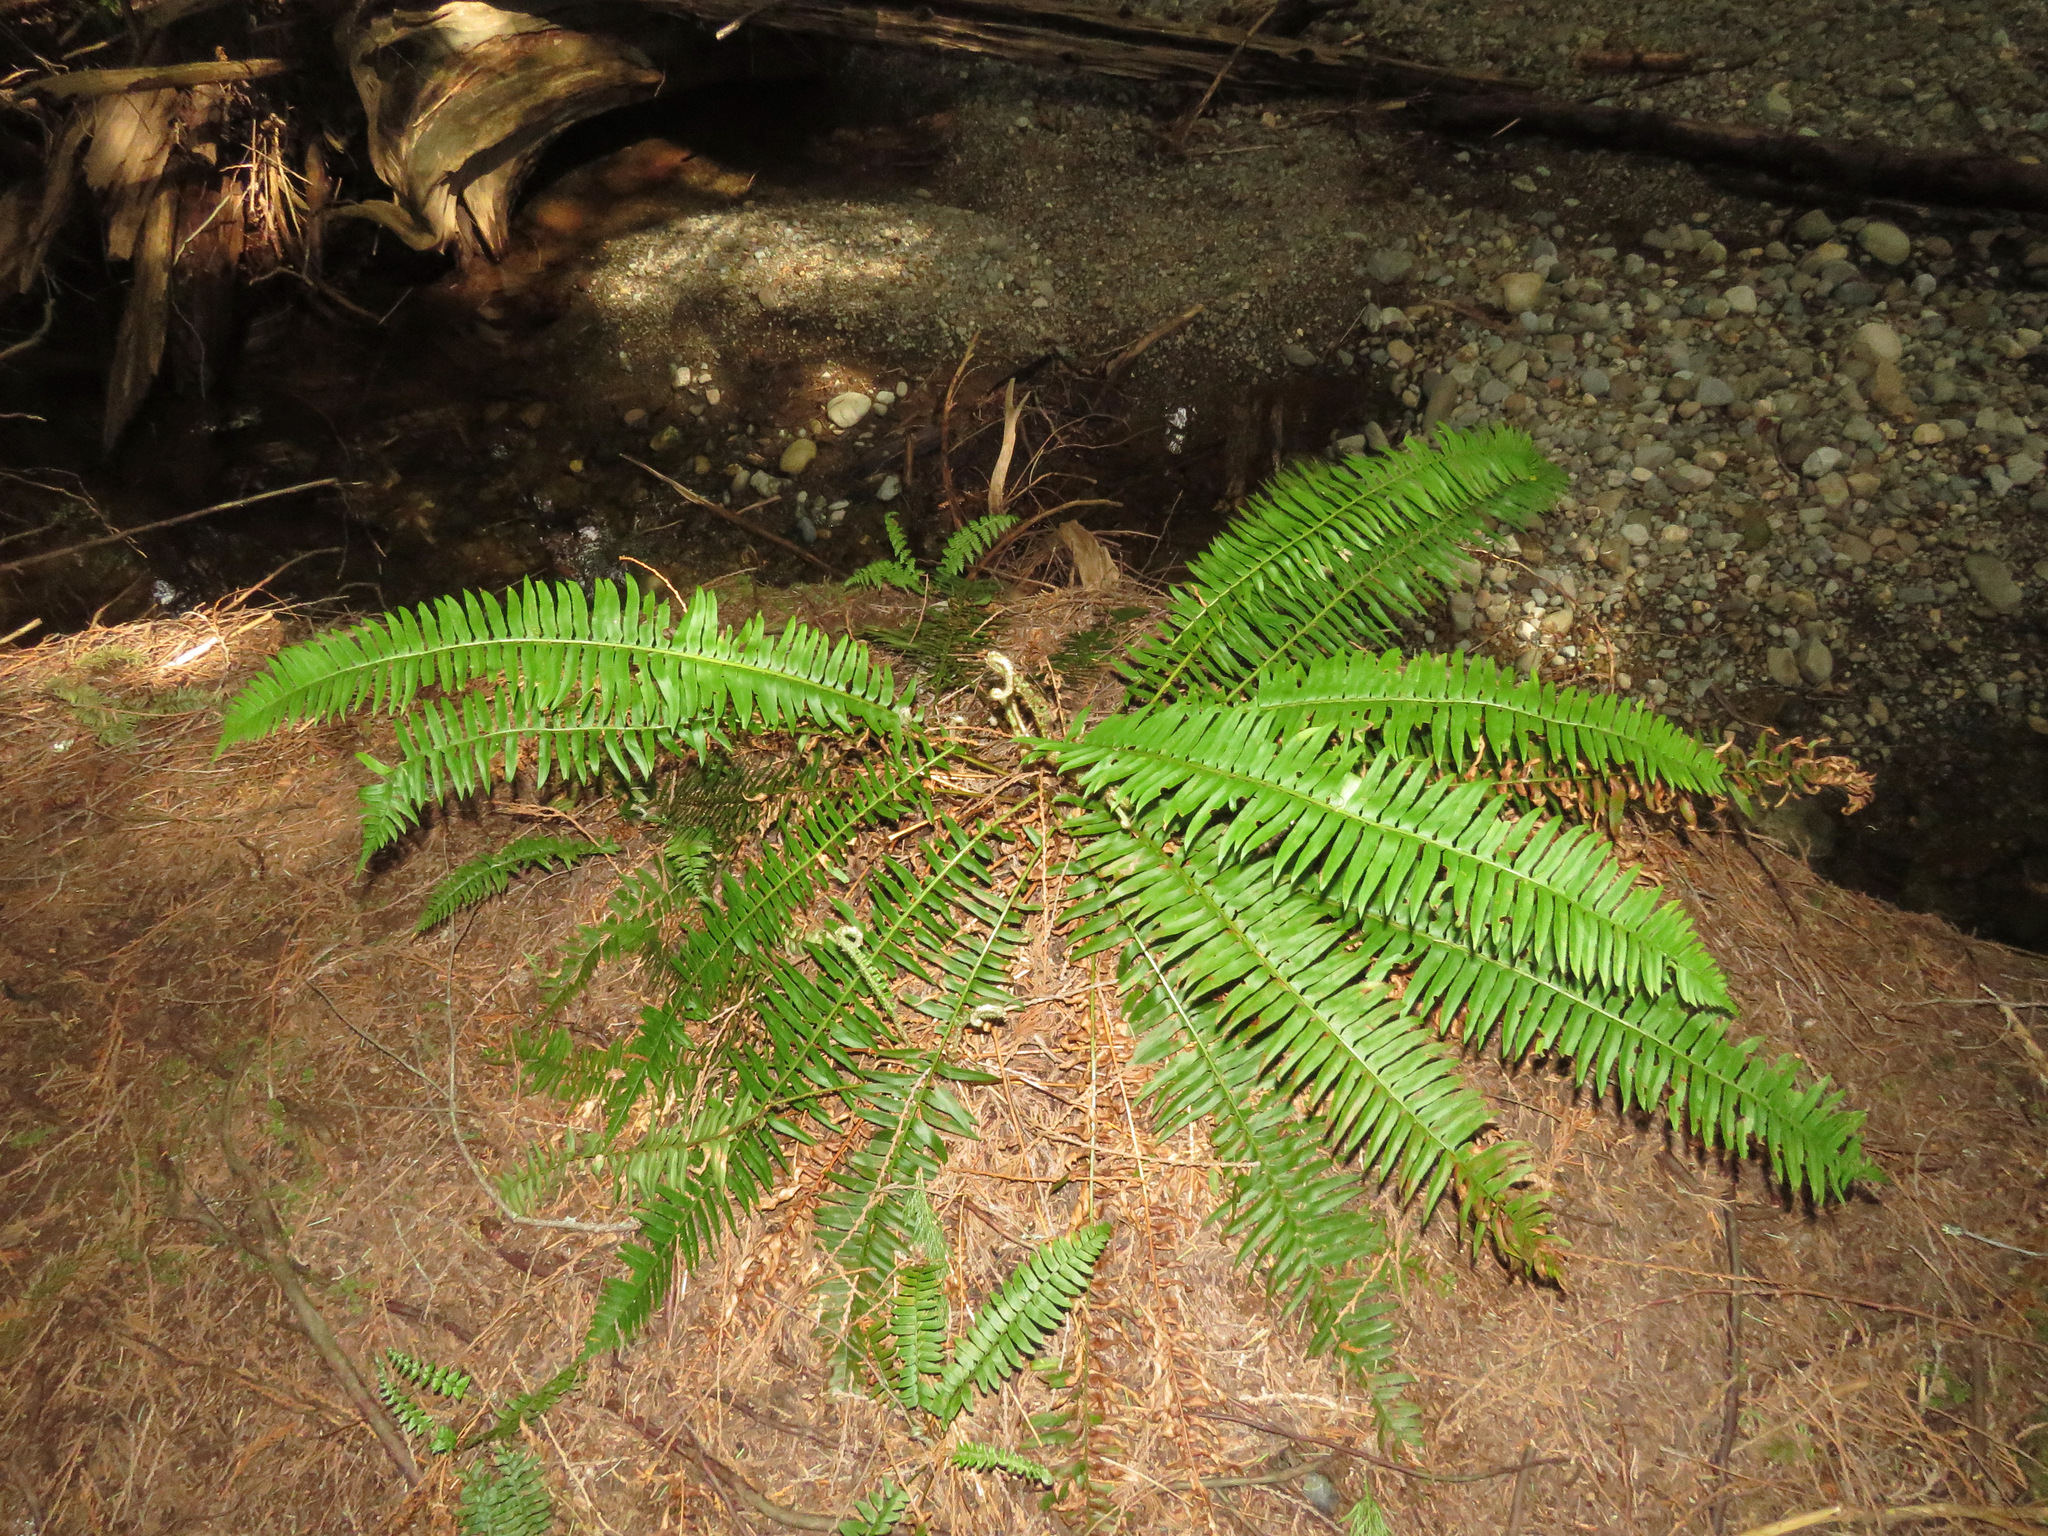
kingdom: Plantae
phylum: Tracheophyta
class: Polypodiopsida
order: Polypodiales
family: Dryopteridaceae
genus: Polystichum
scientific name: Polystichum munitum
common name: Western sword-fern
